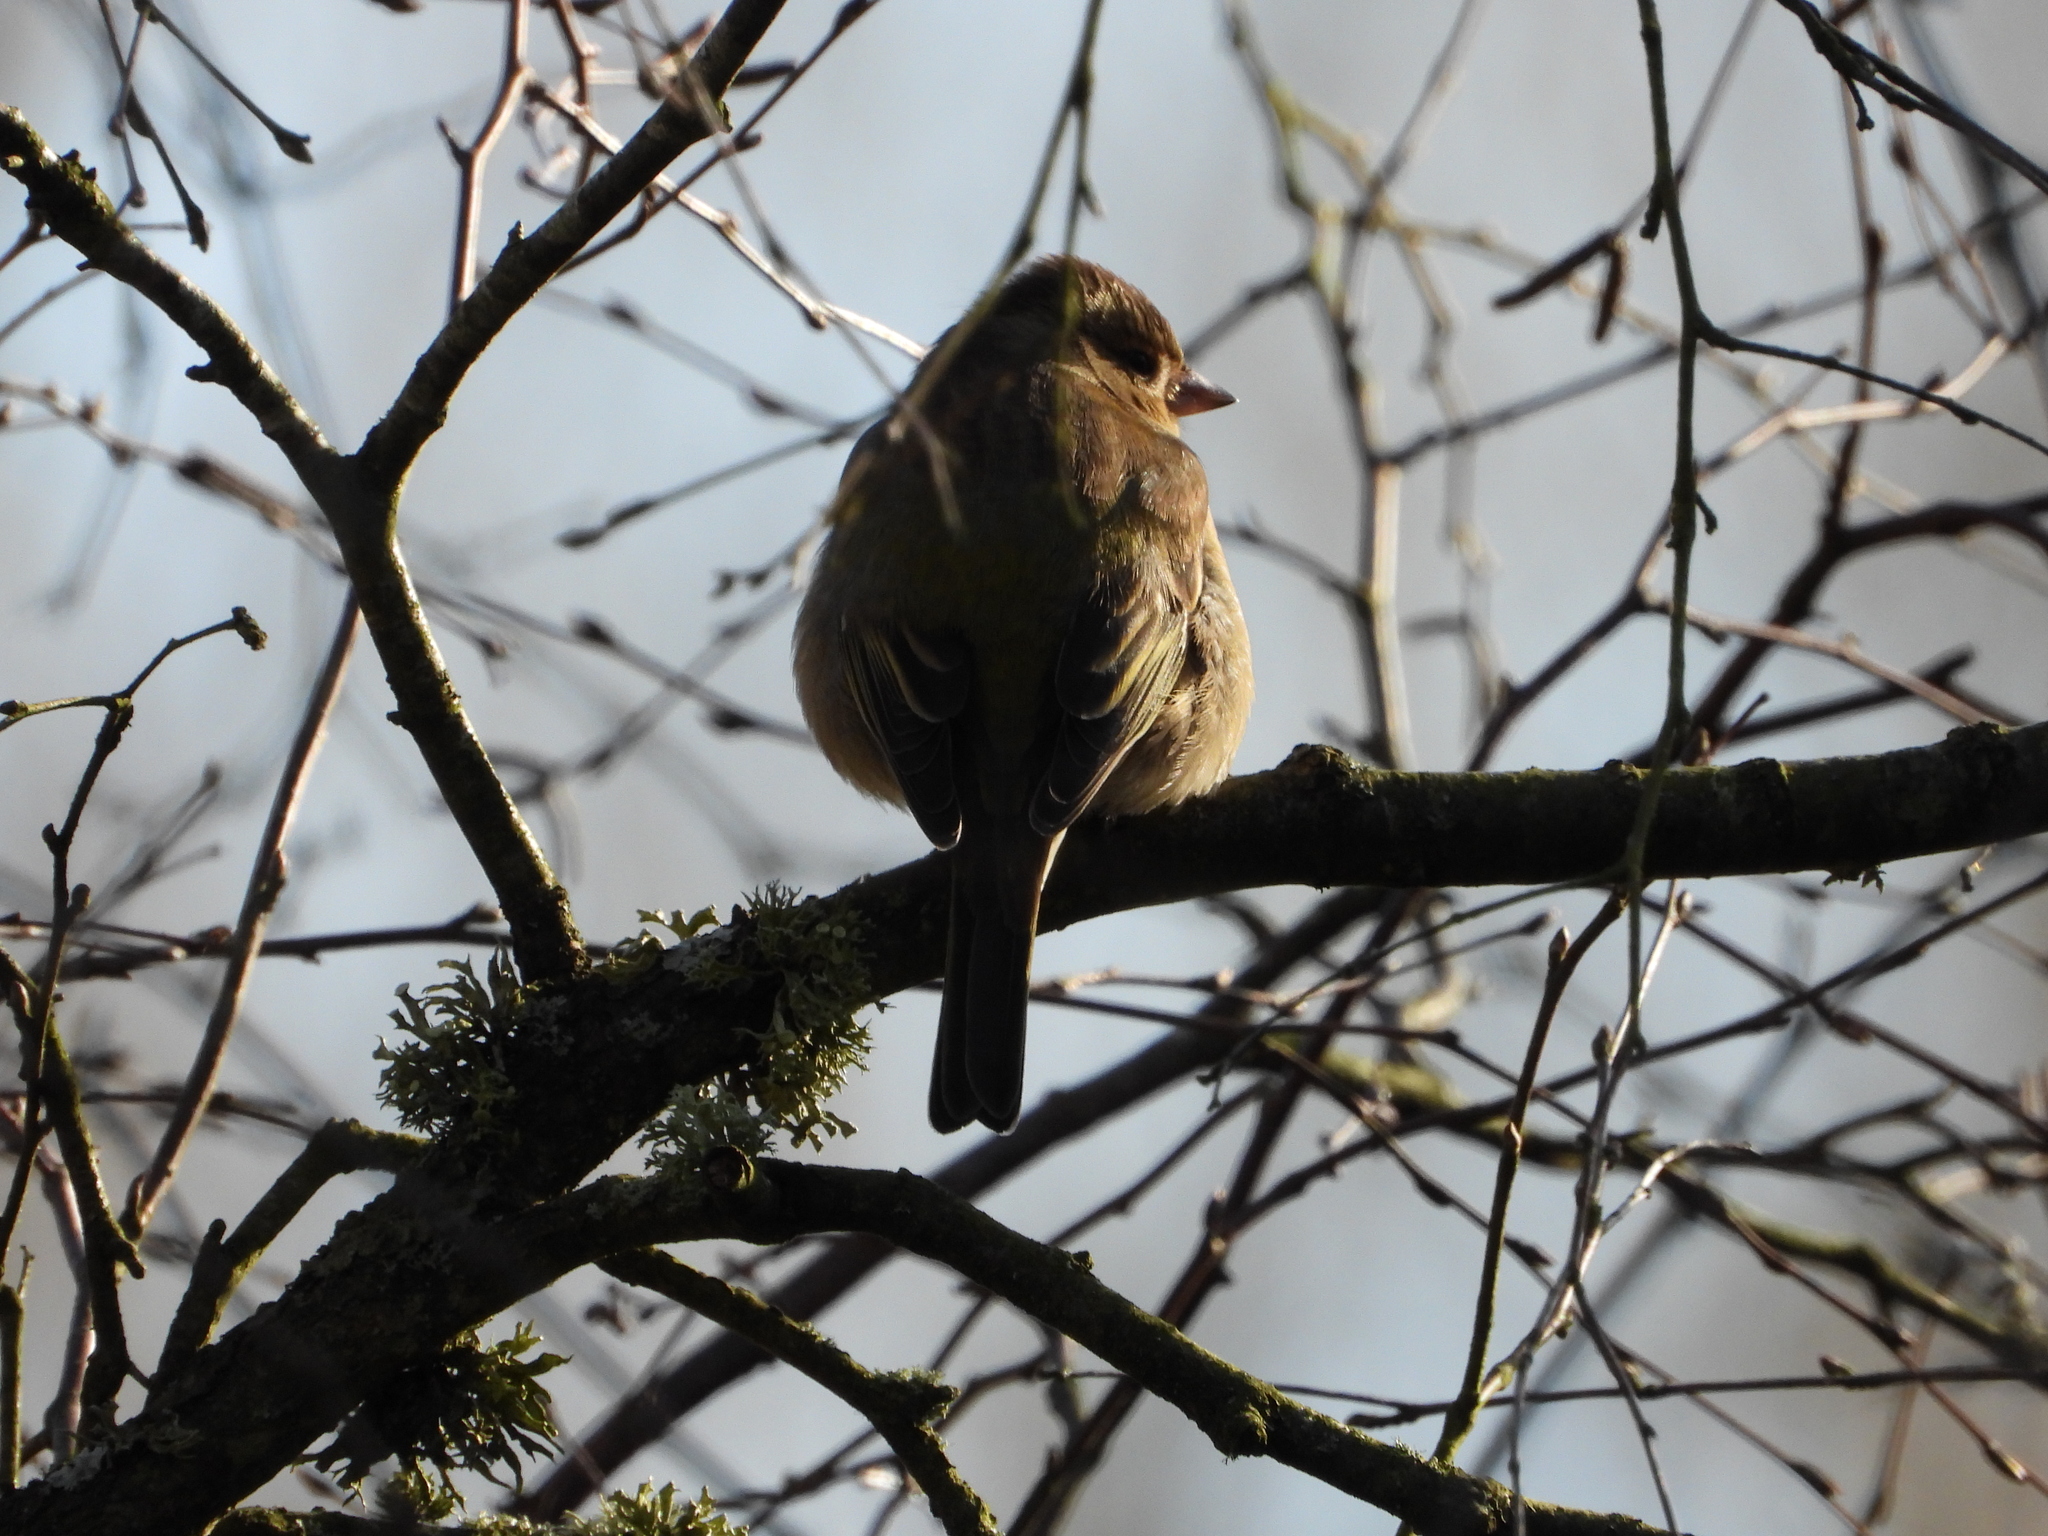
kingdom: Animalia
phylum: Chordata
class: Aves
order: Passeriformes
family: Fringillidae
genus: Fringilla
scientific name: Fringilla coelebs
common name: Common chaffinch
